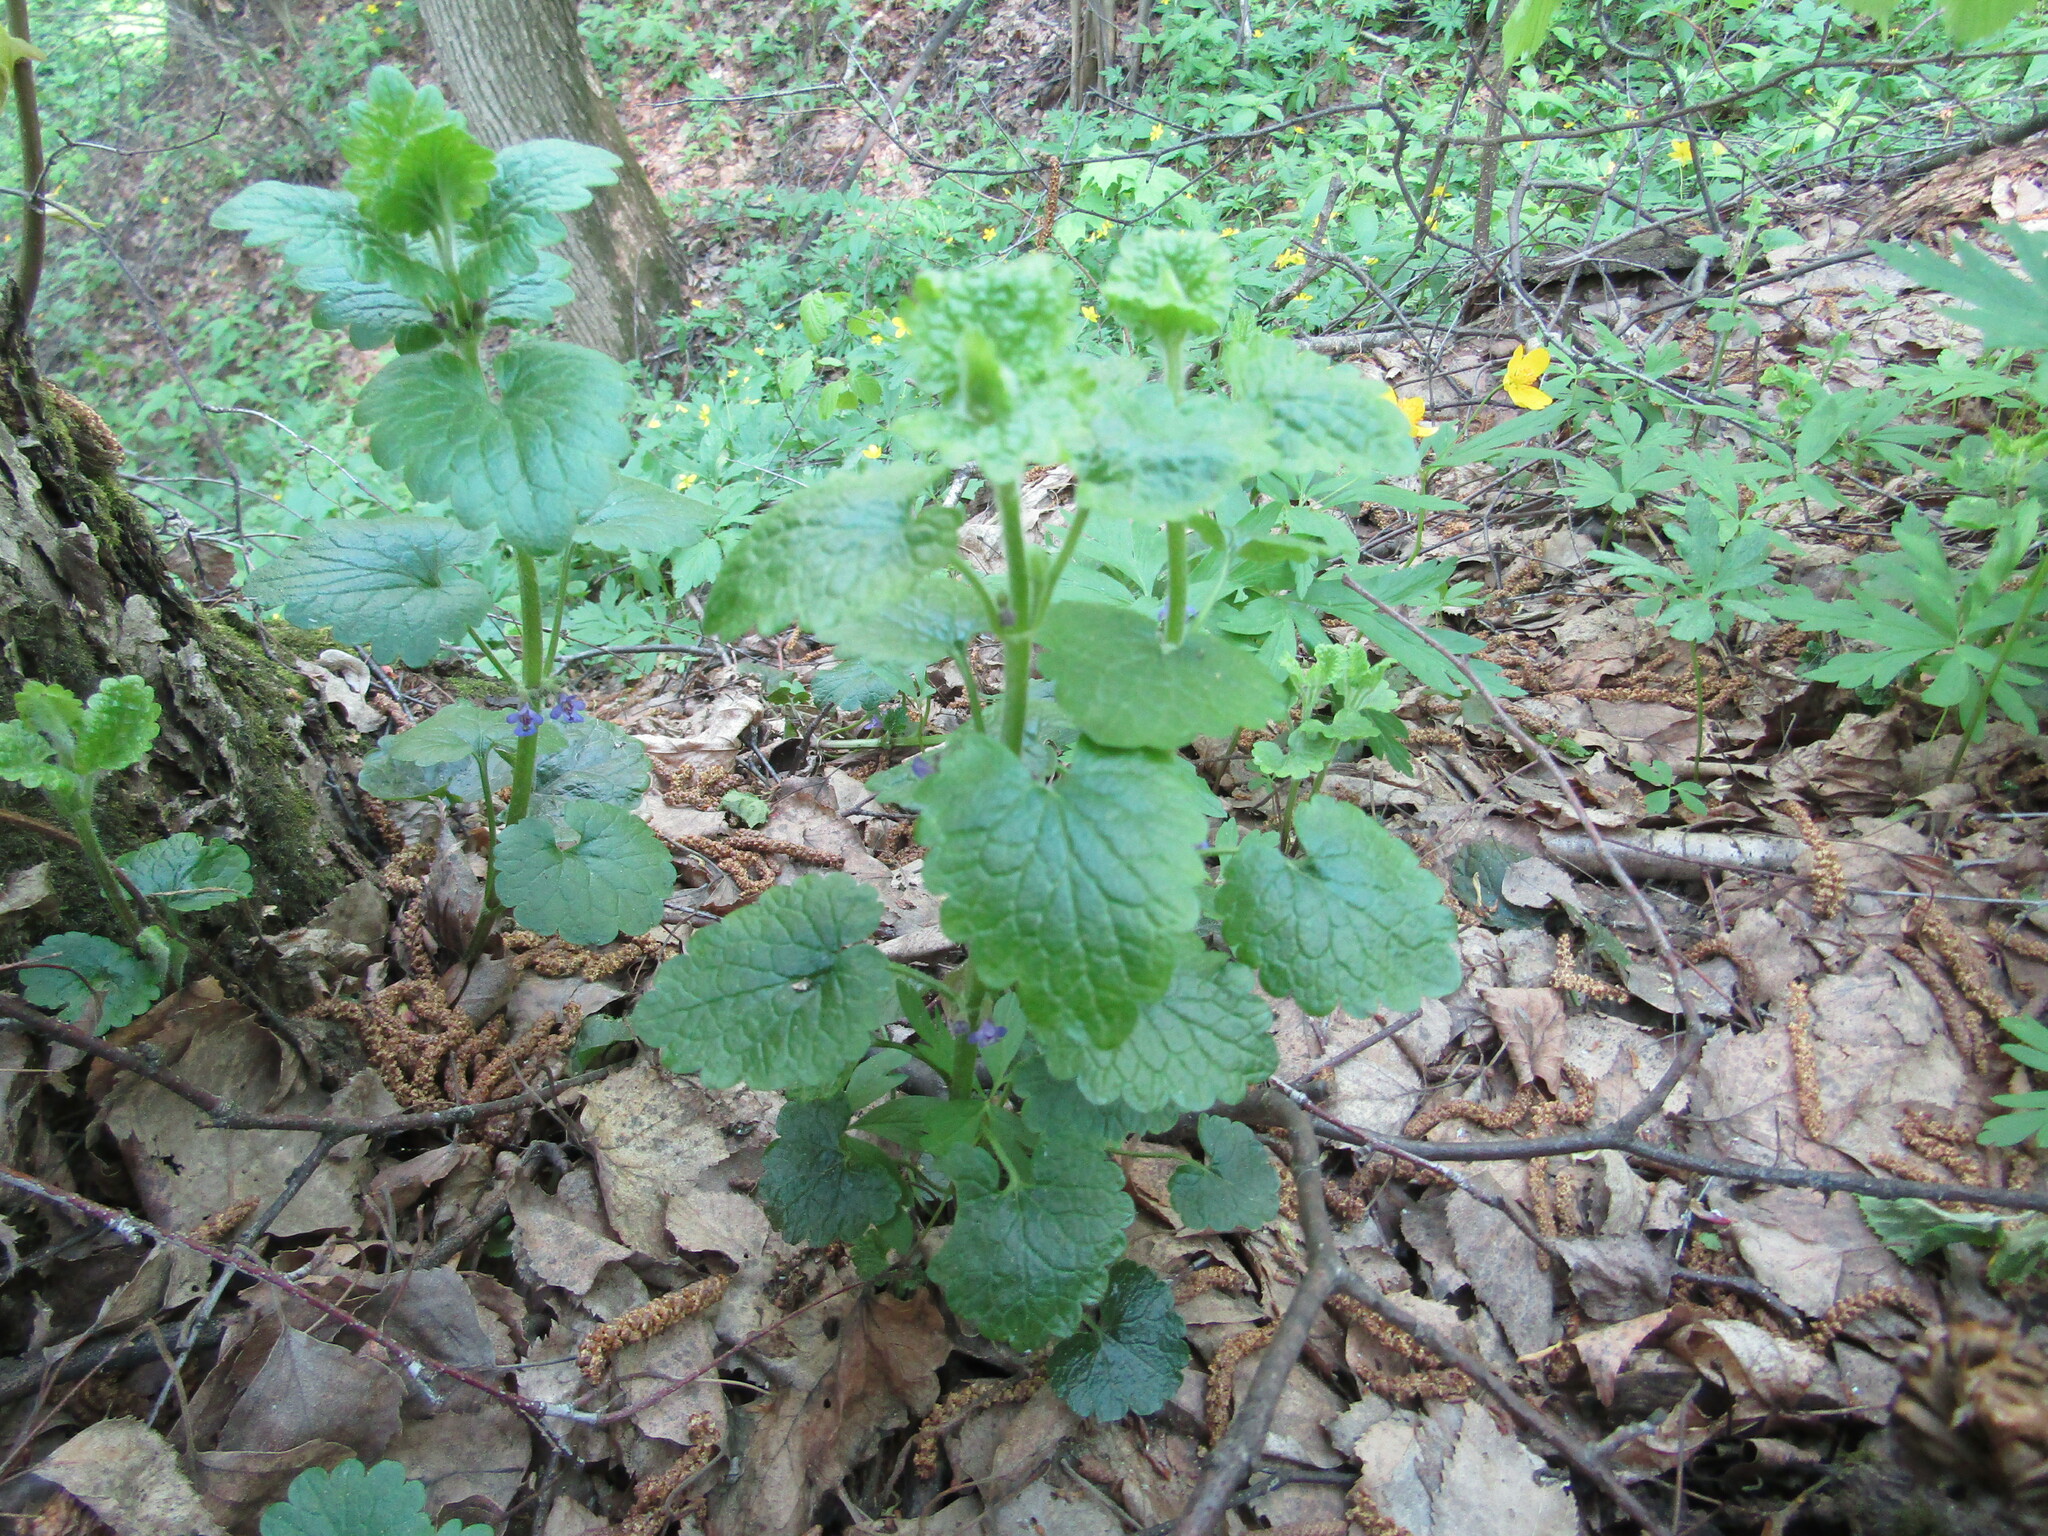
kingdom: Plantae
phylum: Tracheophyta
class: Magnoliopsida
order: Lamiales
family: Lamiaceae
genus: Glechoma
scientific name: Glechoma hederacea
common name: Ground ivy
